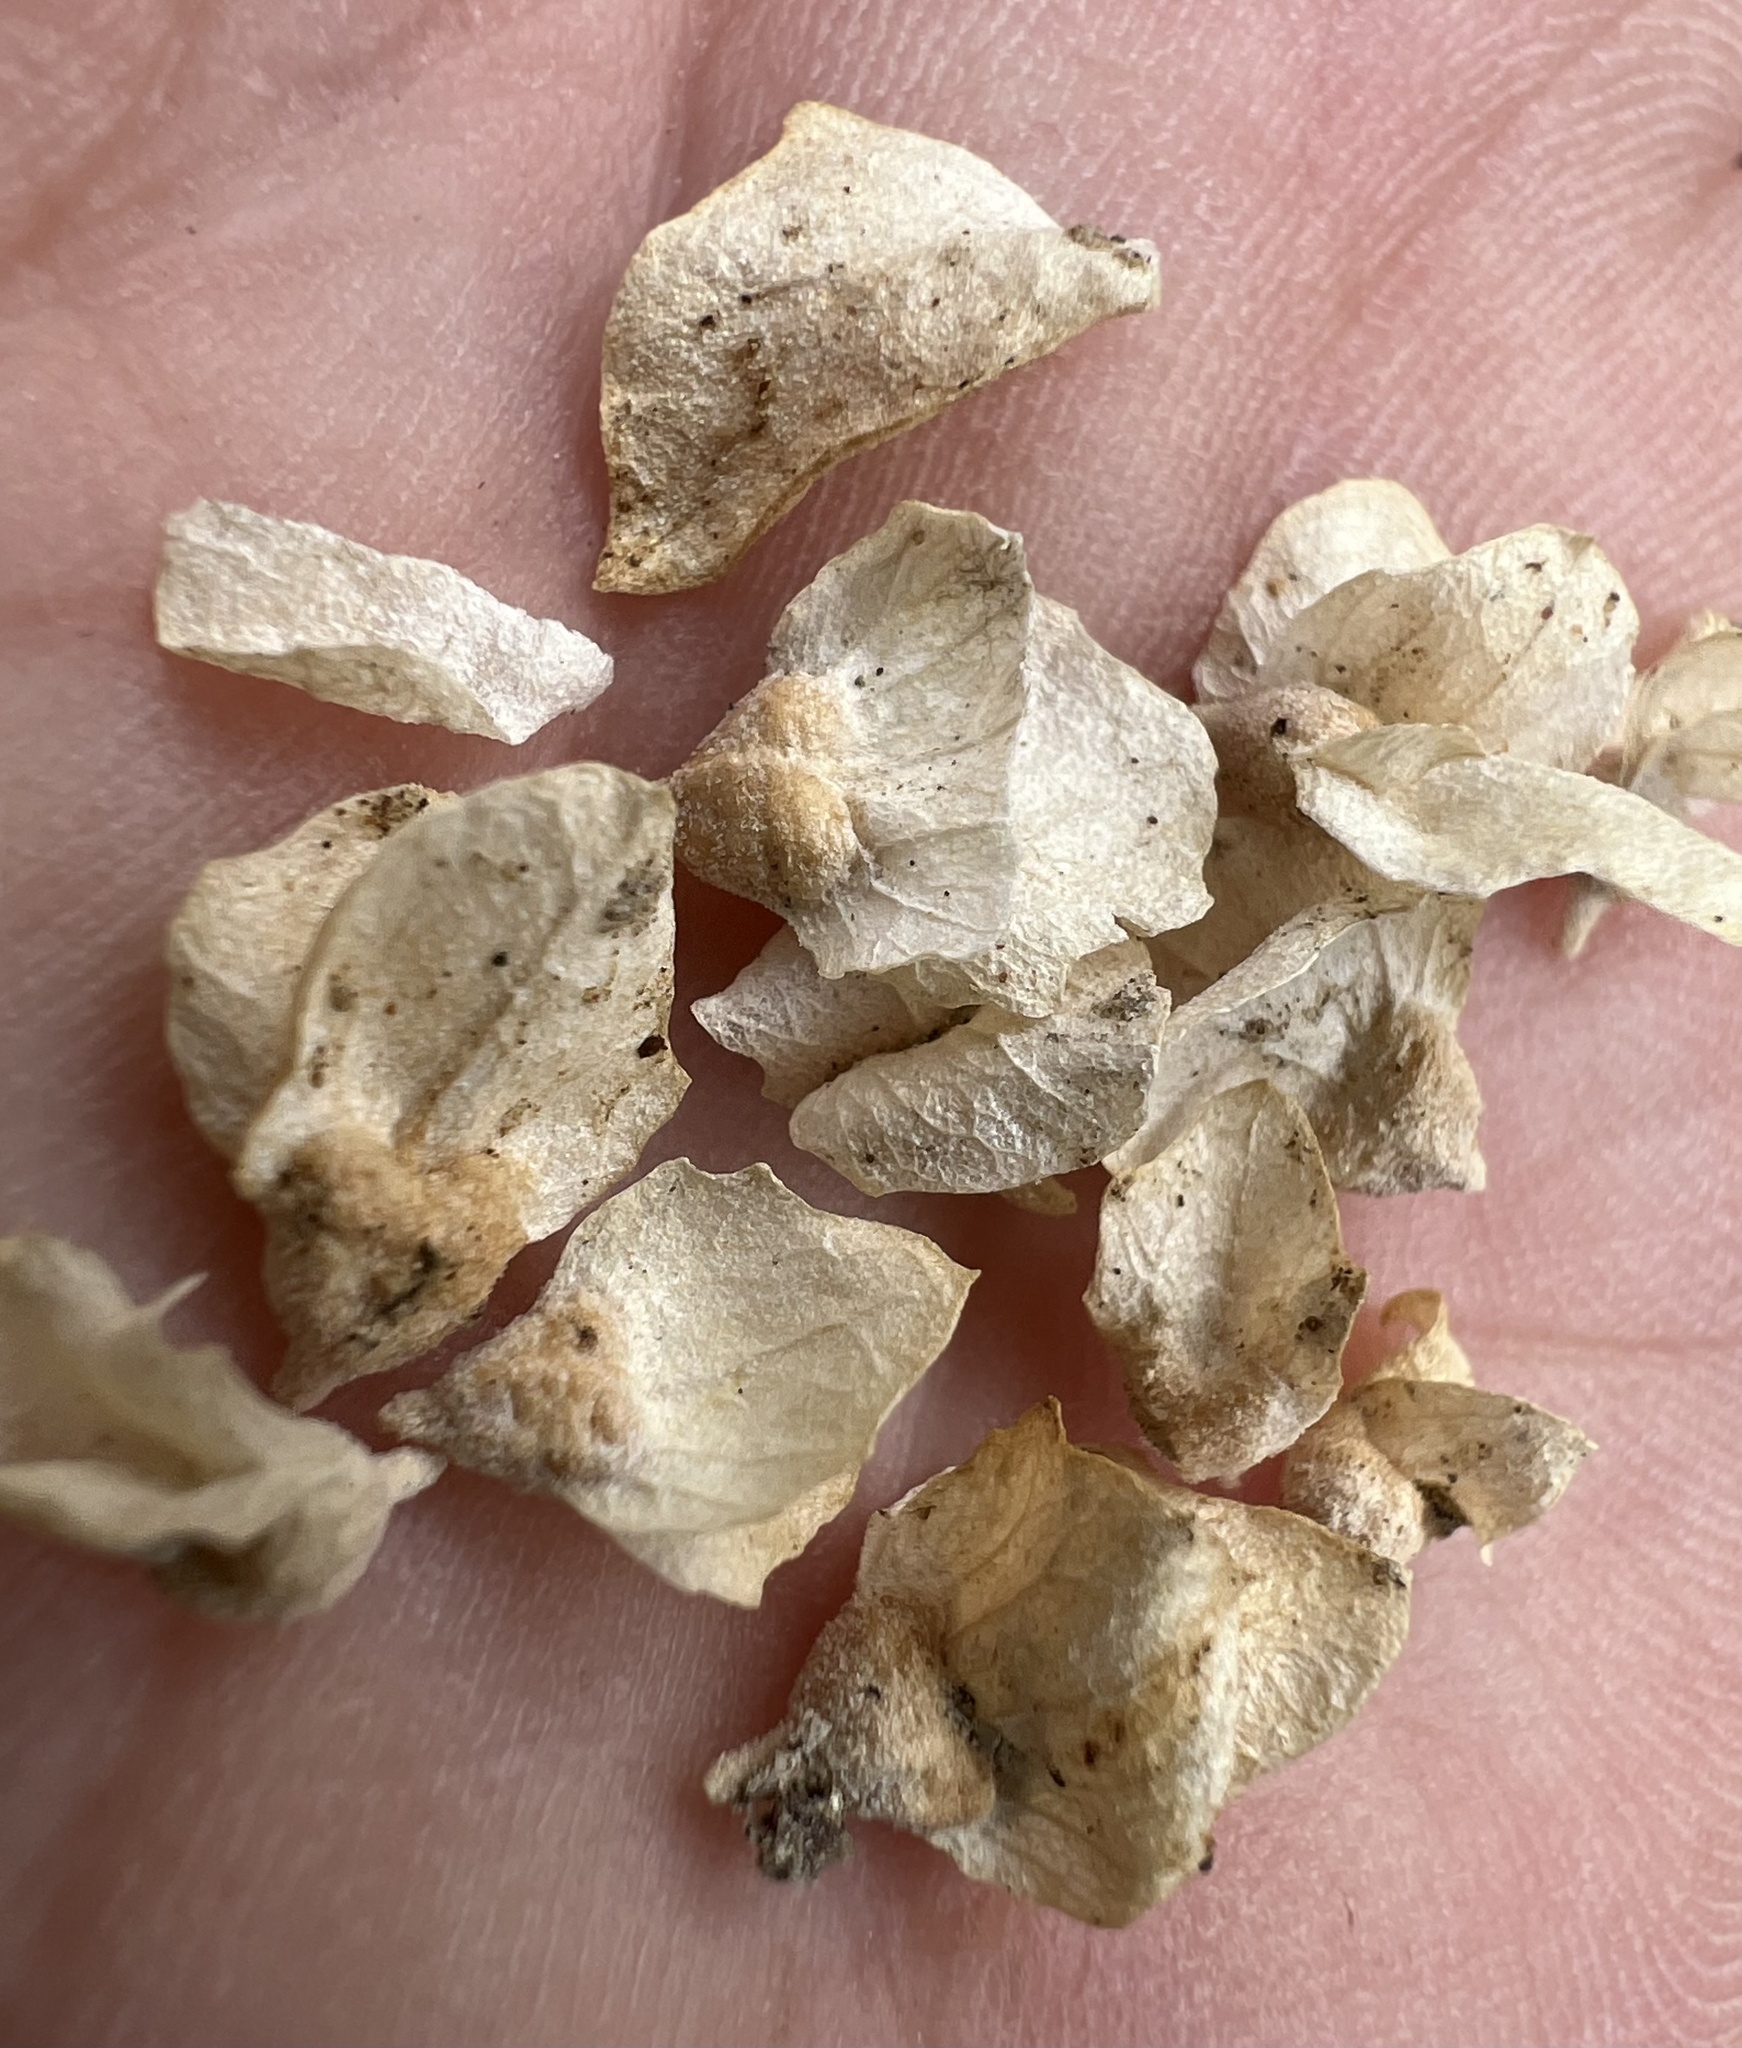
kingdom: Plantae
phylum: Tracheophyta
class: Magnoliopsida
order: Caryophyllales
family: Amaranthaceae
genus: Atriplex
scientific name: Atriplex confertifolia
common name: Shadscale
